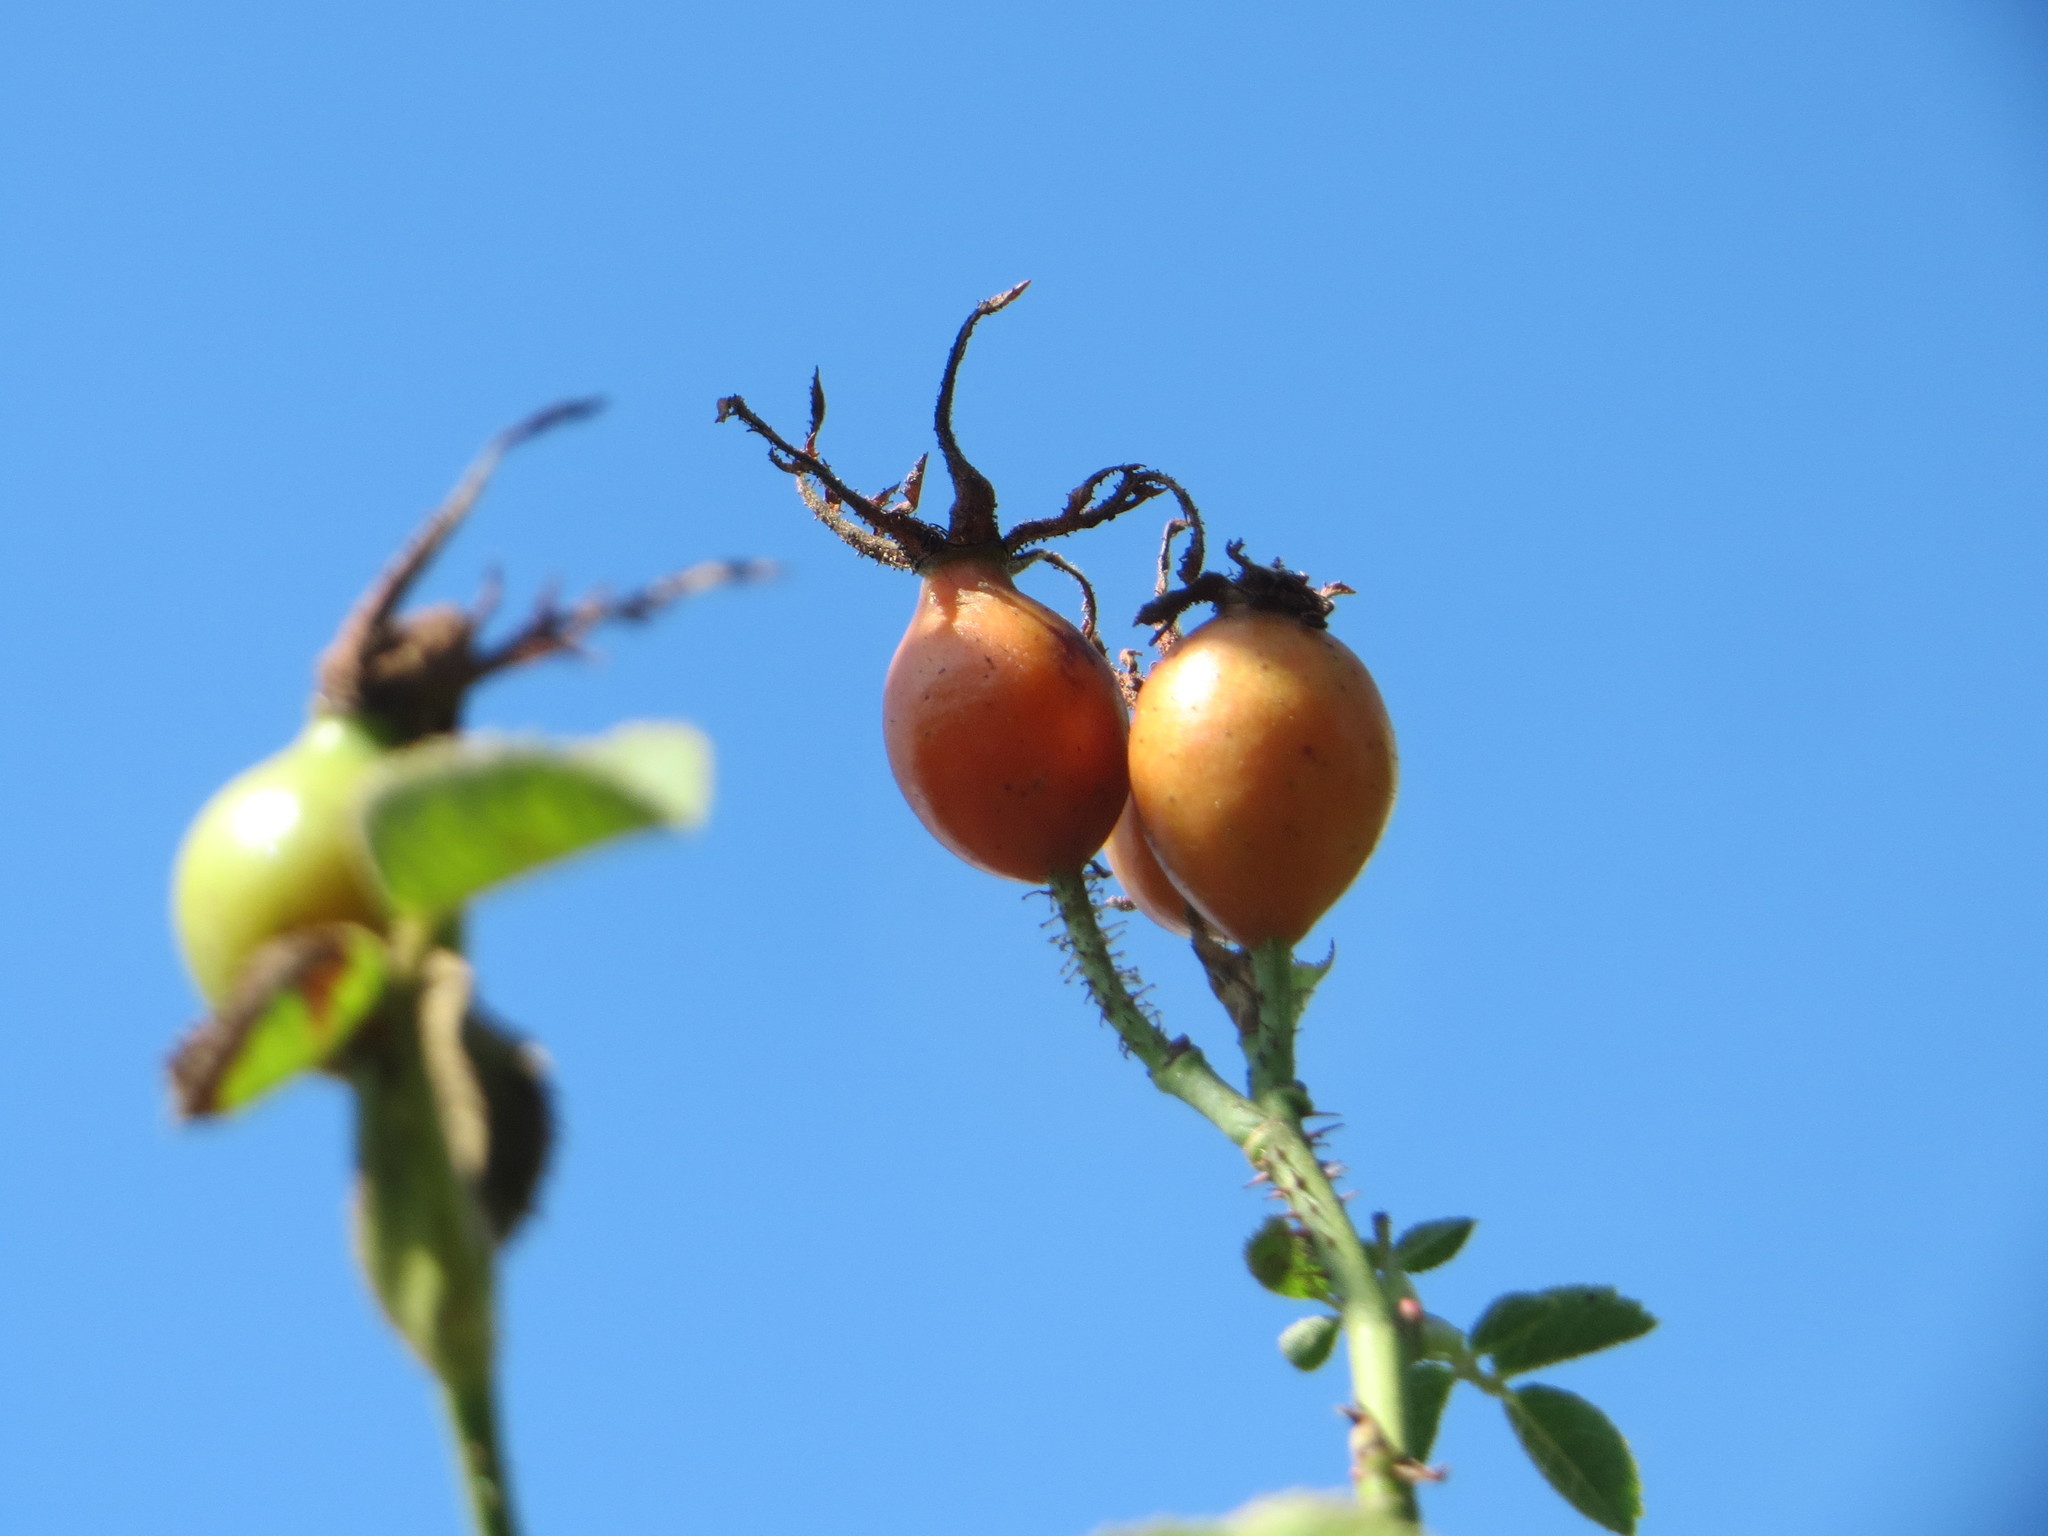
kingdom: Plantae
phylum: Tracheophyta
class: Magnoliopsida
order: Rosales
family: Rosaceae
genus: Rosa
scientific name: Rosa rubiginosa
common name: Sweet-briar
